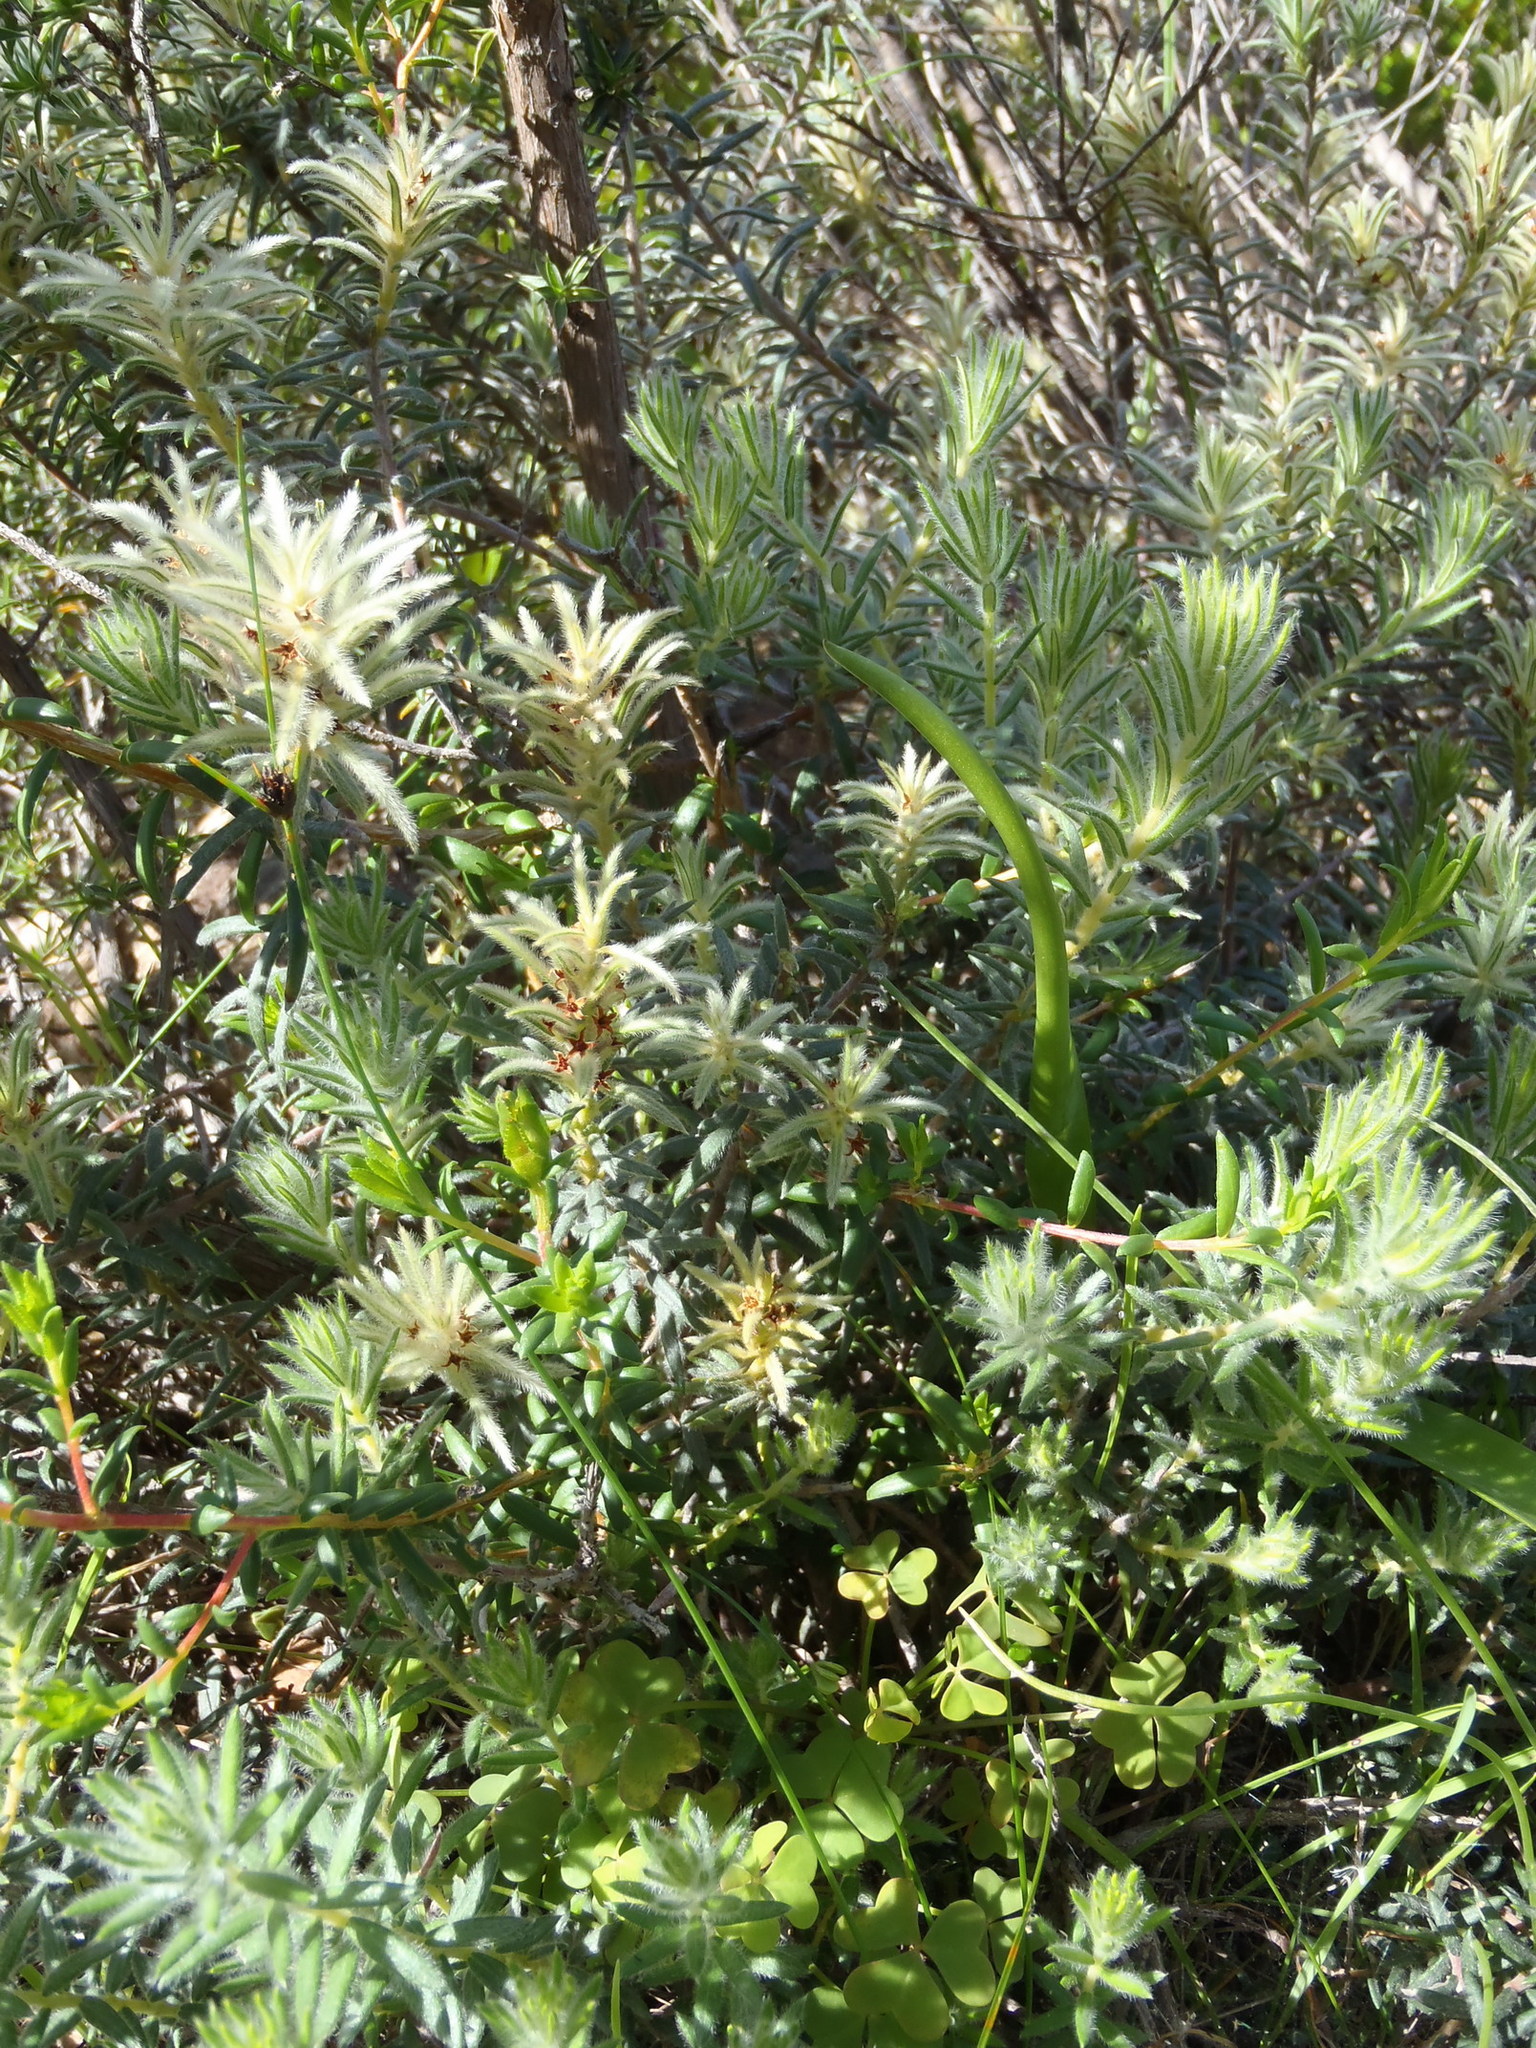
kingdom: Plantae
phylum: Tracheophyta
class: Magnoliopsida
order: Rosales
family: Rhamnaceae
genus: Phylica
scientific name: Phylica plumosa
